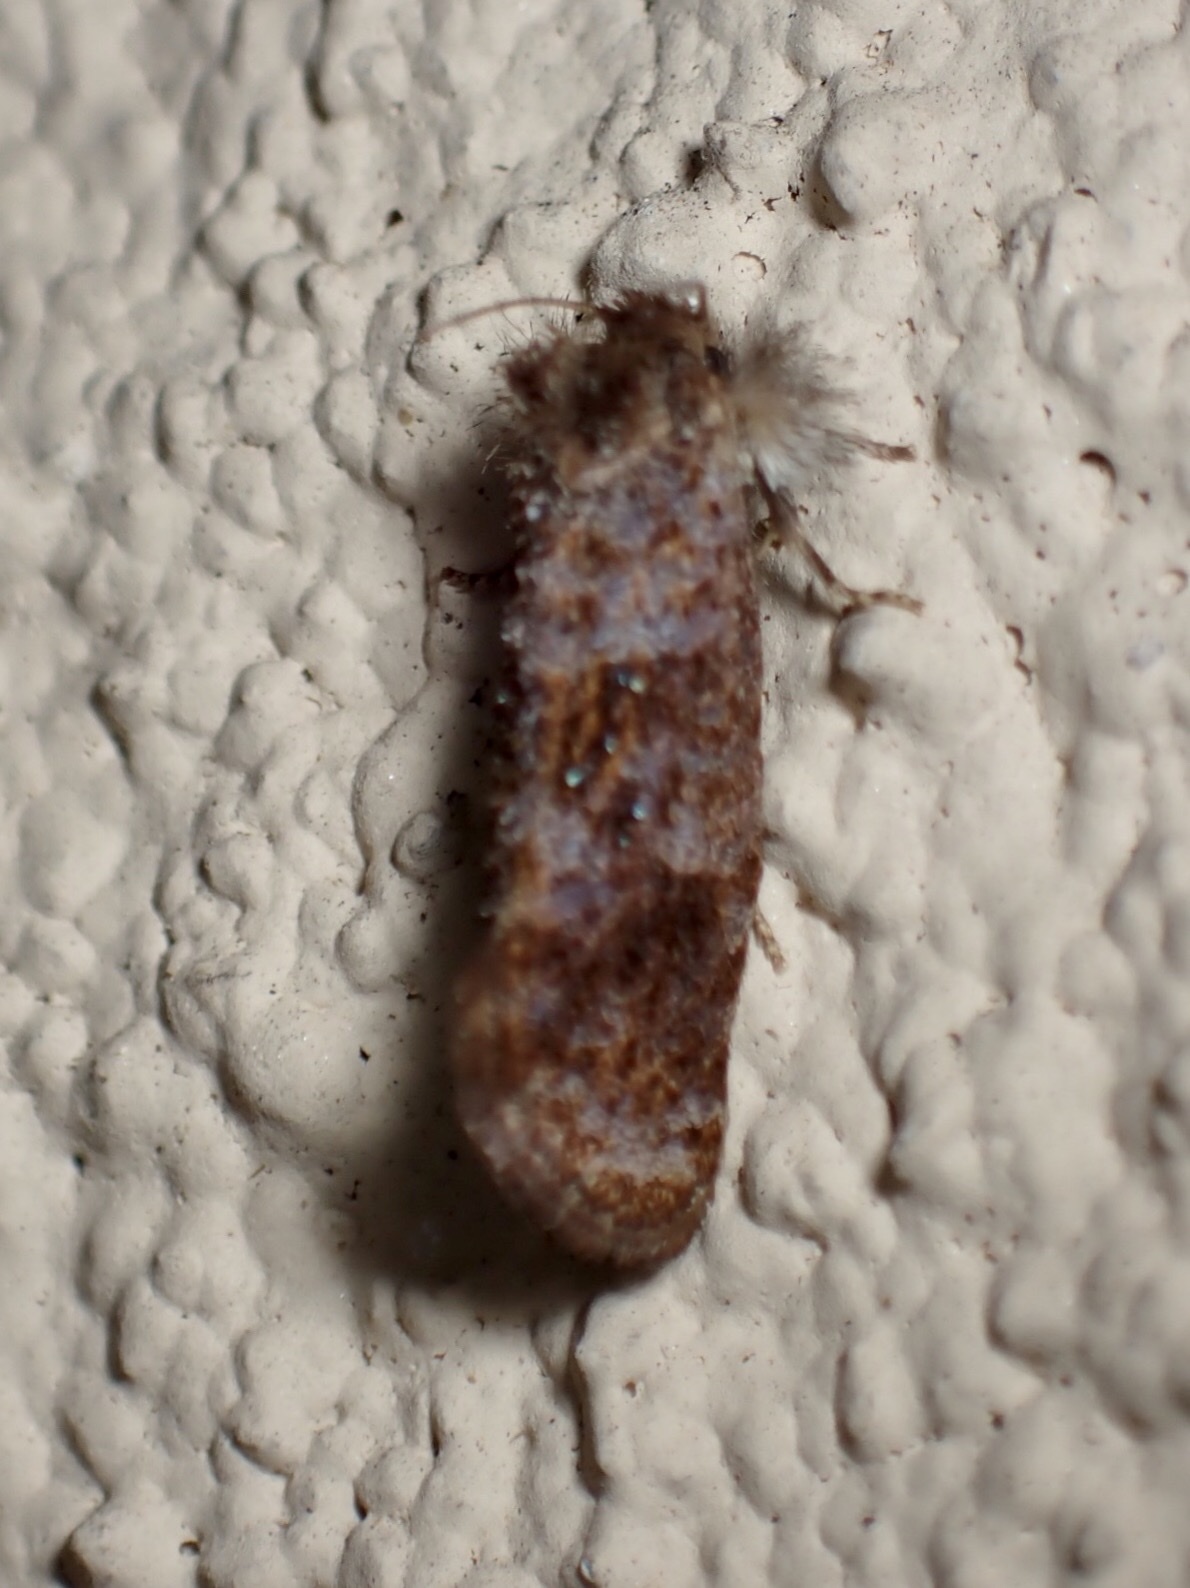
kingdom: Animalia
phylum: Arthropoda
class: Insecta
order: Lepidoptera
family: Tineidae
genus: Acrolophus
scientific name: Acrolophus panamae
